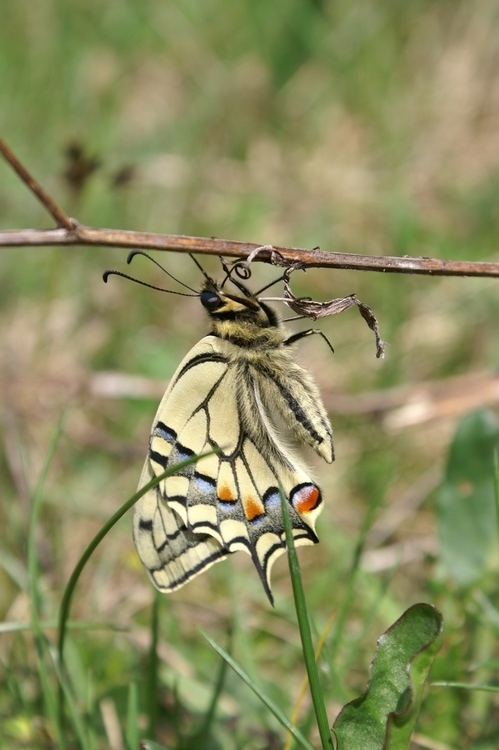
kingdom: Animalia
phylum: Arthropoda
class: Insecta
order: Lepidoptera
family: Papilionidae
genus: Papilio
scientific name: Papilio machaon
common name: Swallowtail
